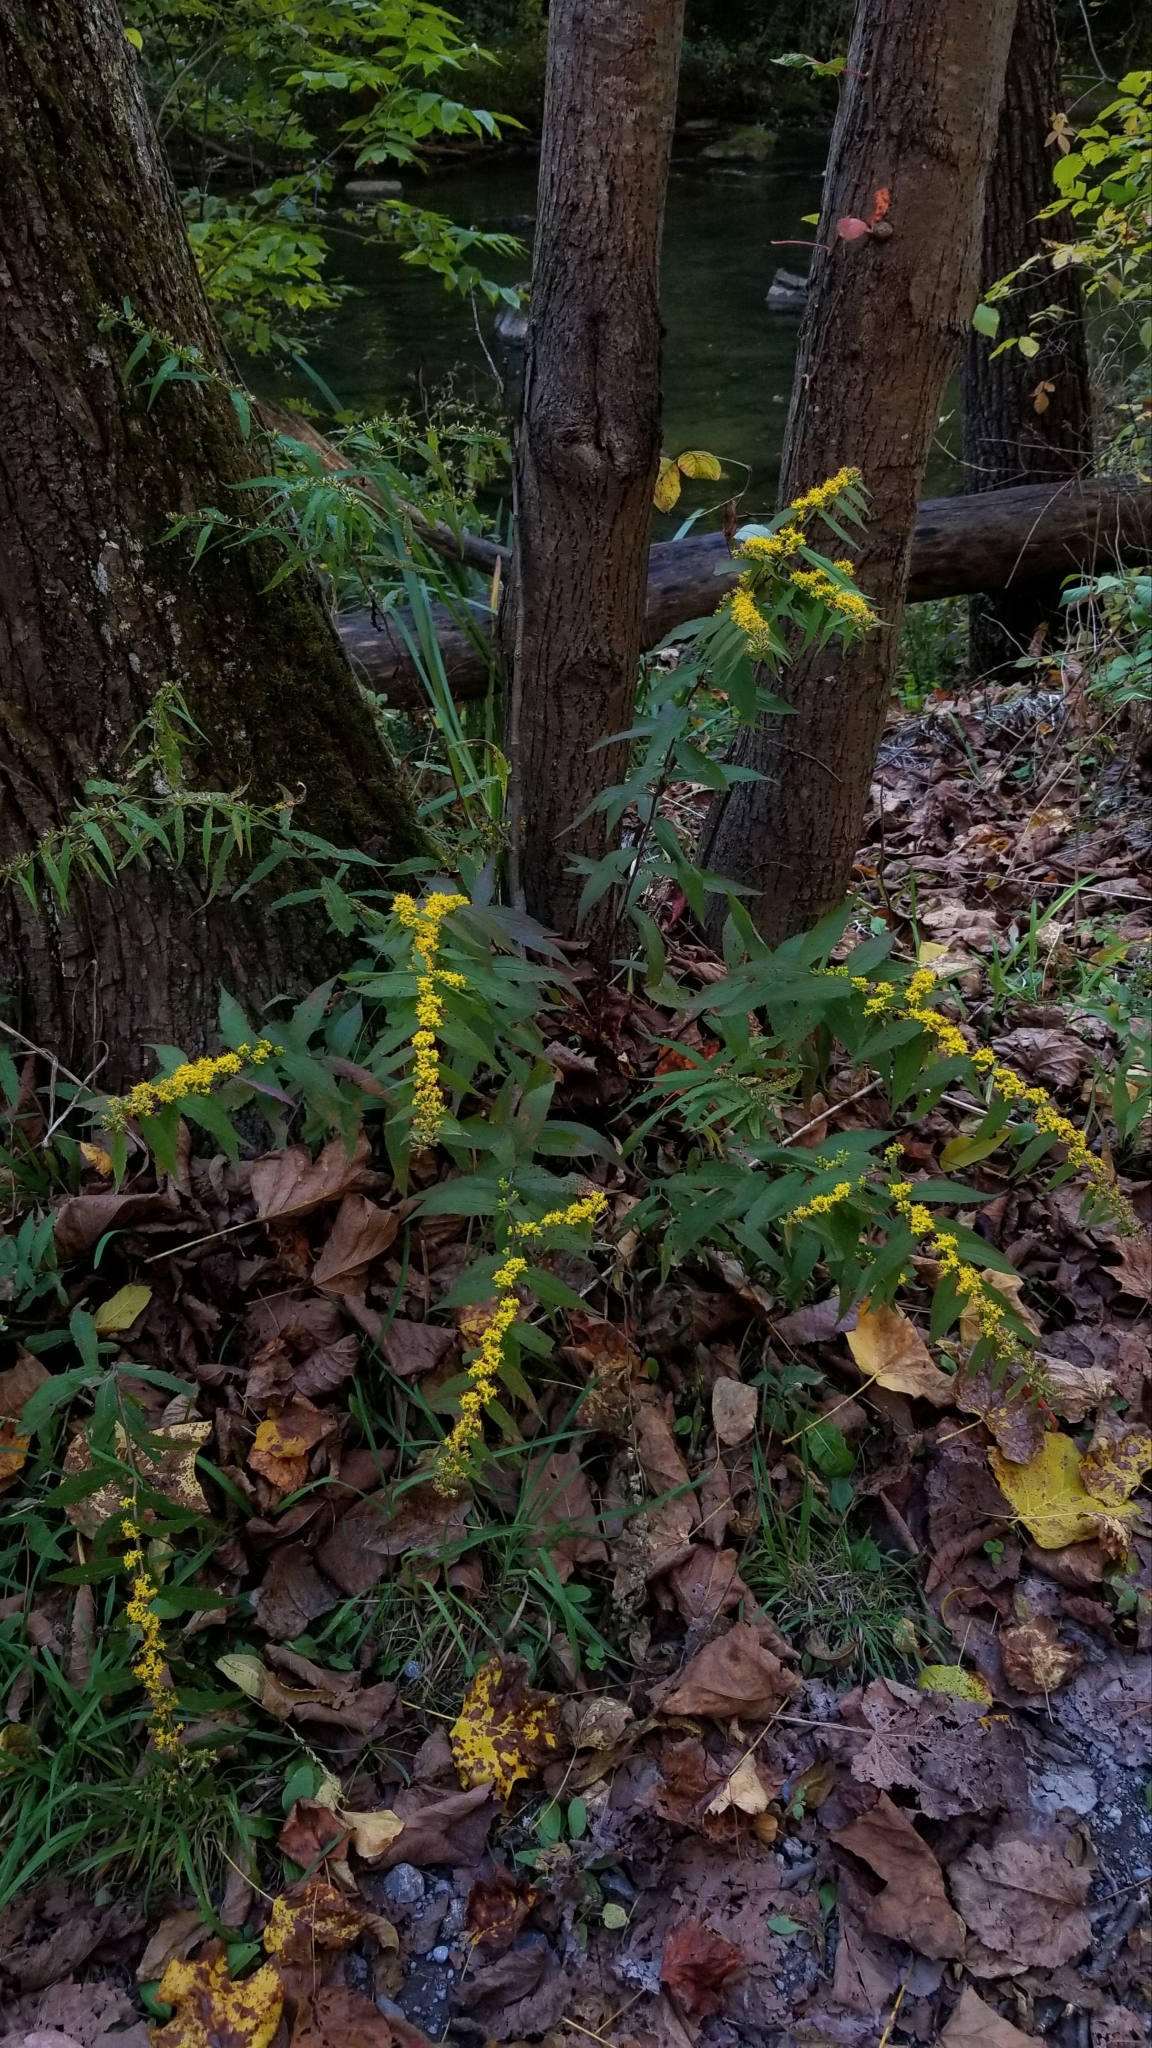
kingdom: Plantae
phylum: Tracheophyta
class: Magnoliopsida
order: Asterales
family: Asteraceae
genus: Solidago
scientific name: Solidago caesia
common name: Woodland goldenrod
